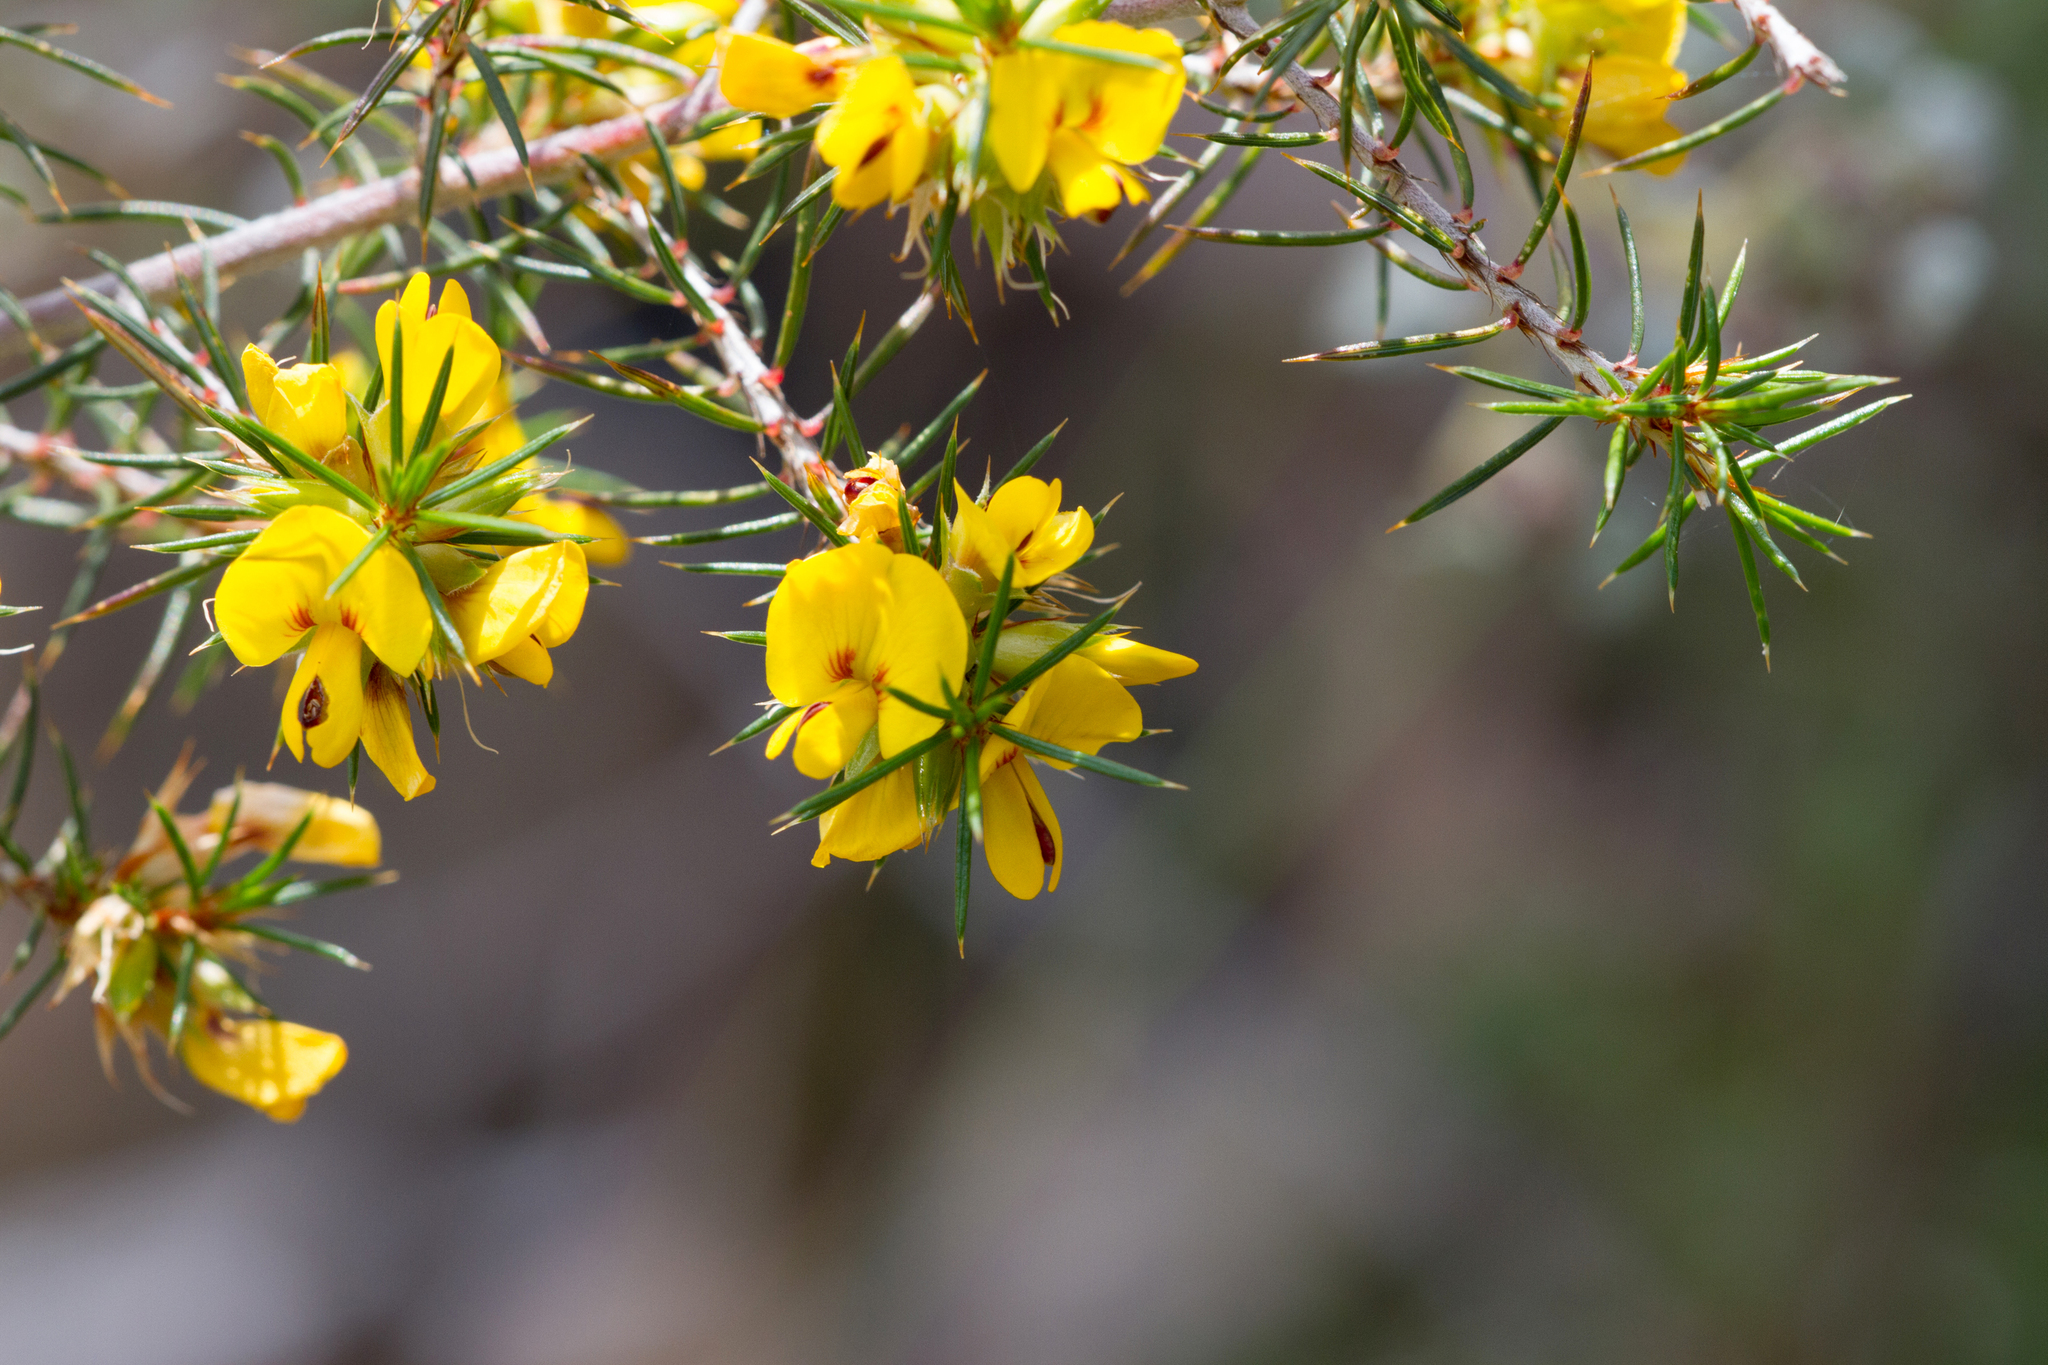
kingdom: Plantae
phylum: Tracheophyta
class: Magnoliopsida
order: Fabales
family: Fabaceae
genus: Pultenaea
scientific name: Pultenaea acerosa
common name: Bristly bush-pea
